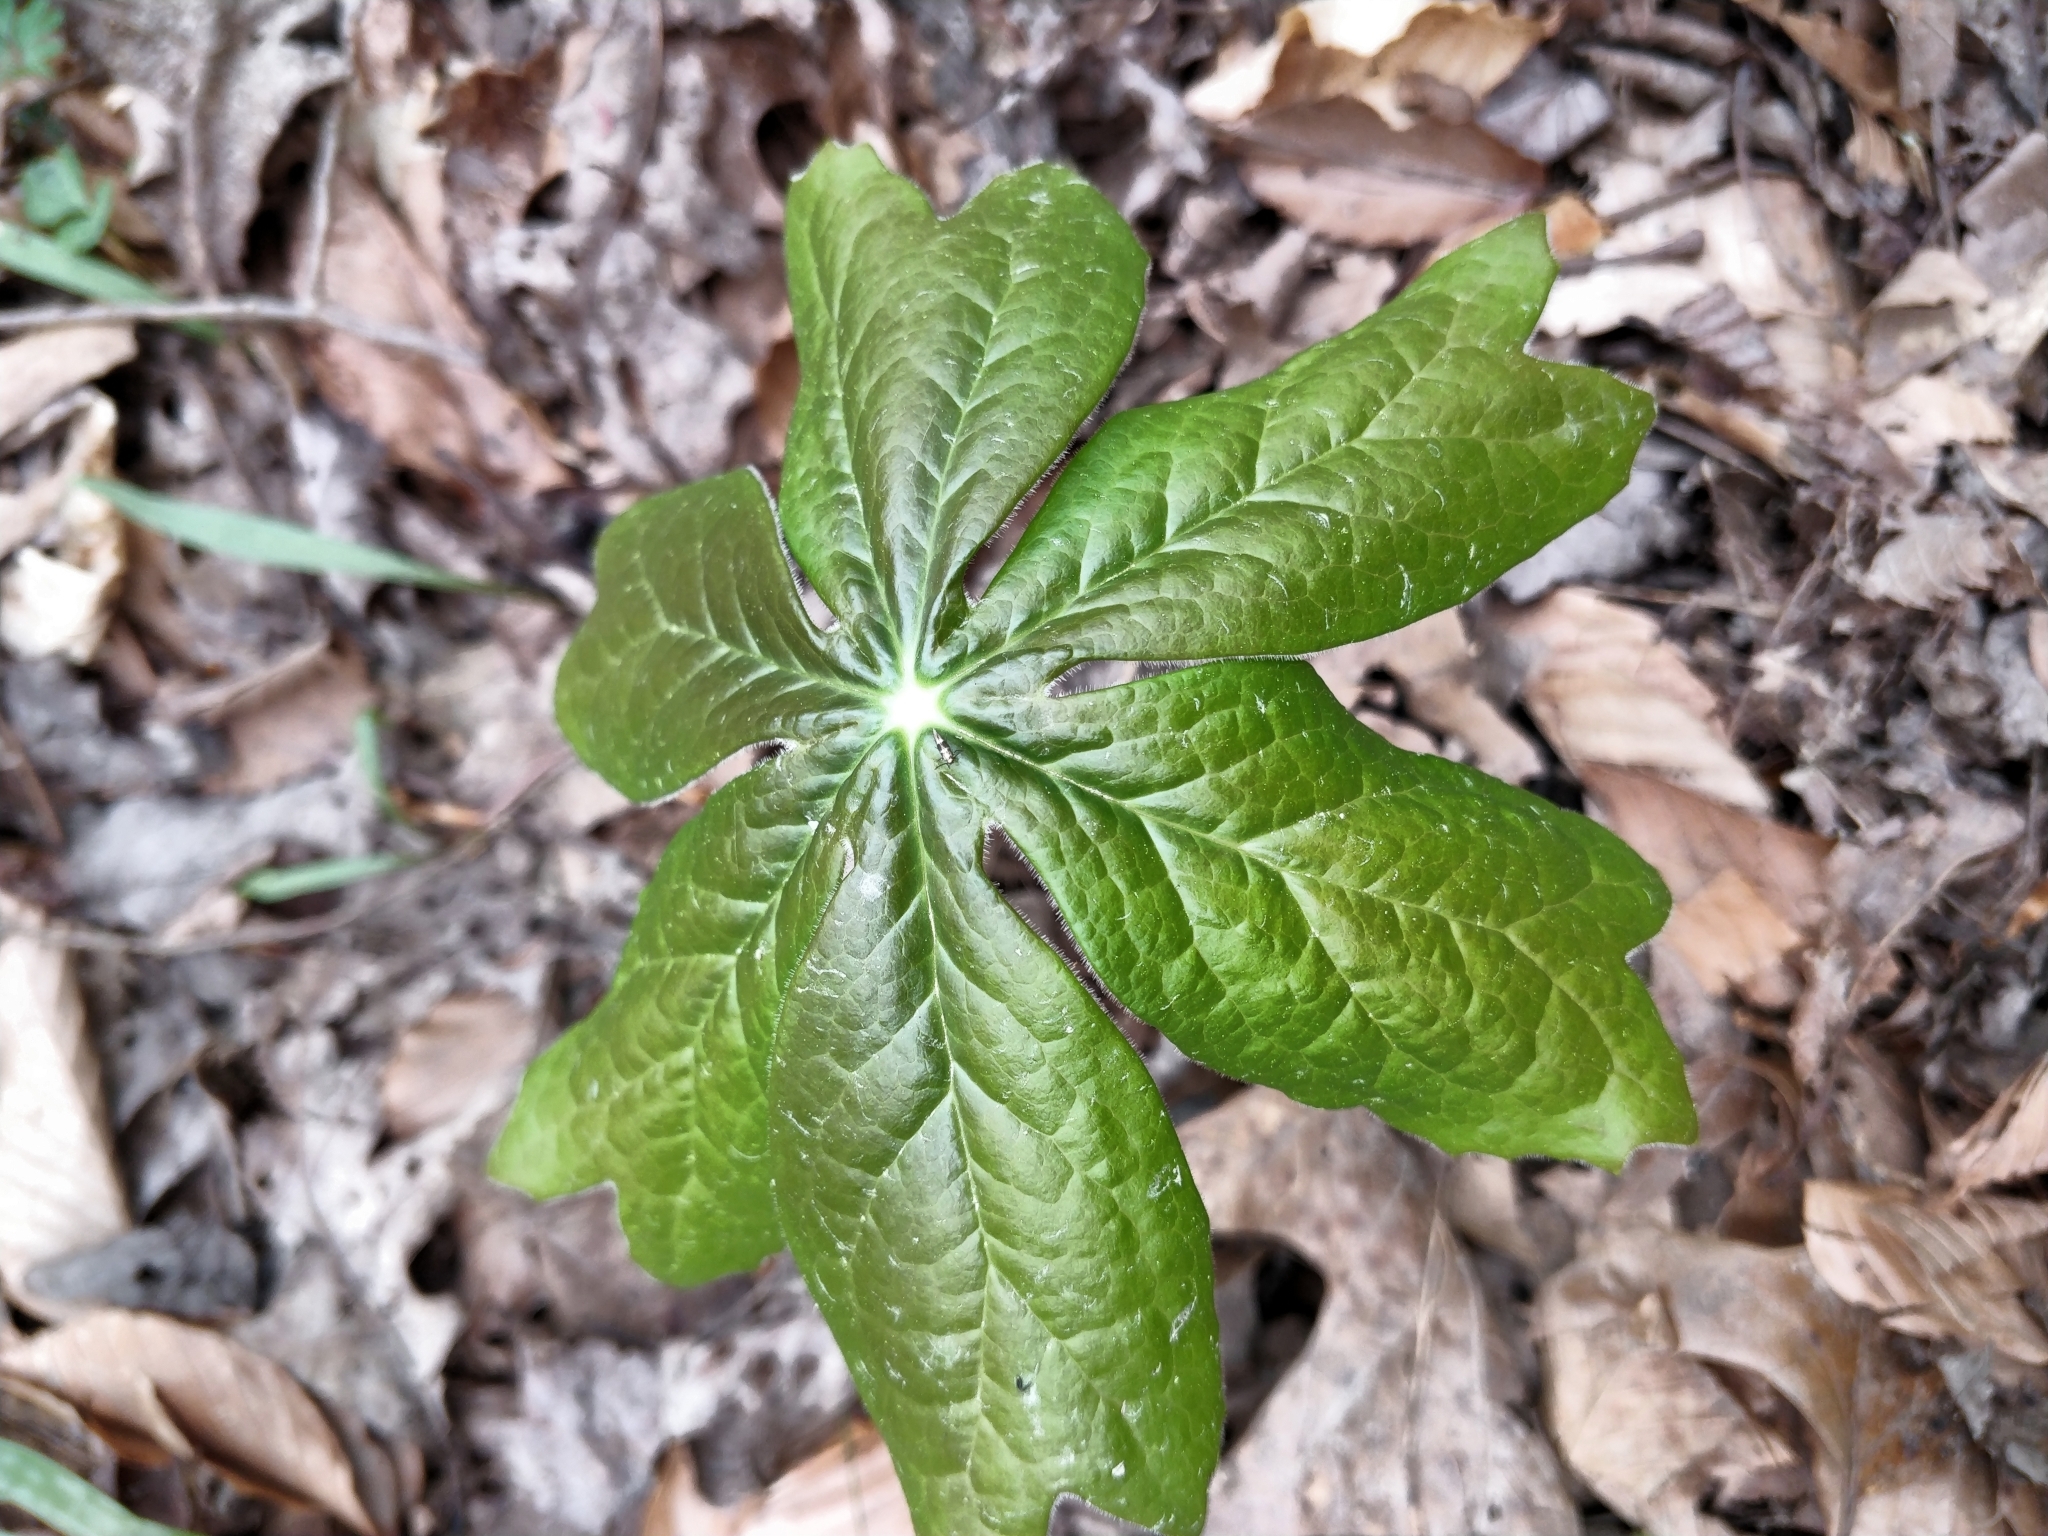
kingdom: Plantae
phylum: Tracheophyta
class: Magnoliopsida
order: Ranunculales
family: Berberidaceae
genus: Podophyllum
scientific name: Podophyllum peltatum
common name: Wild mandrake
